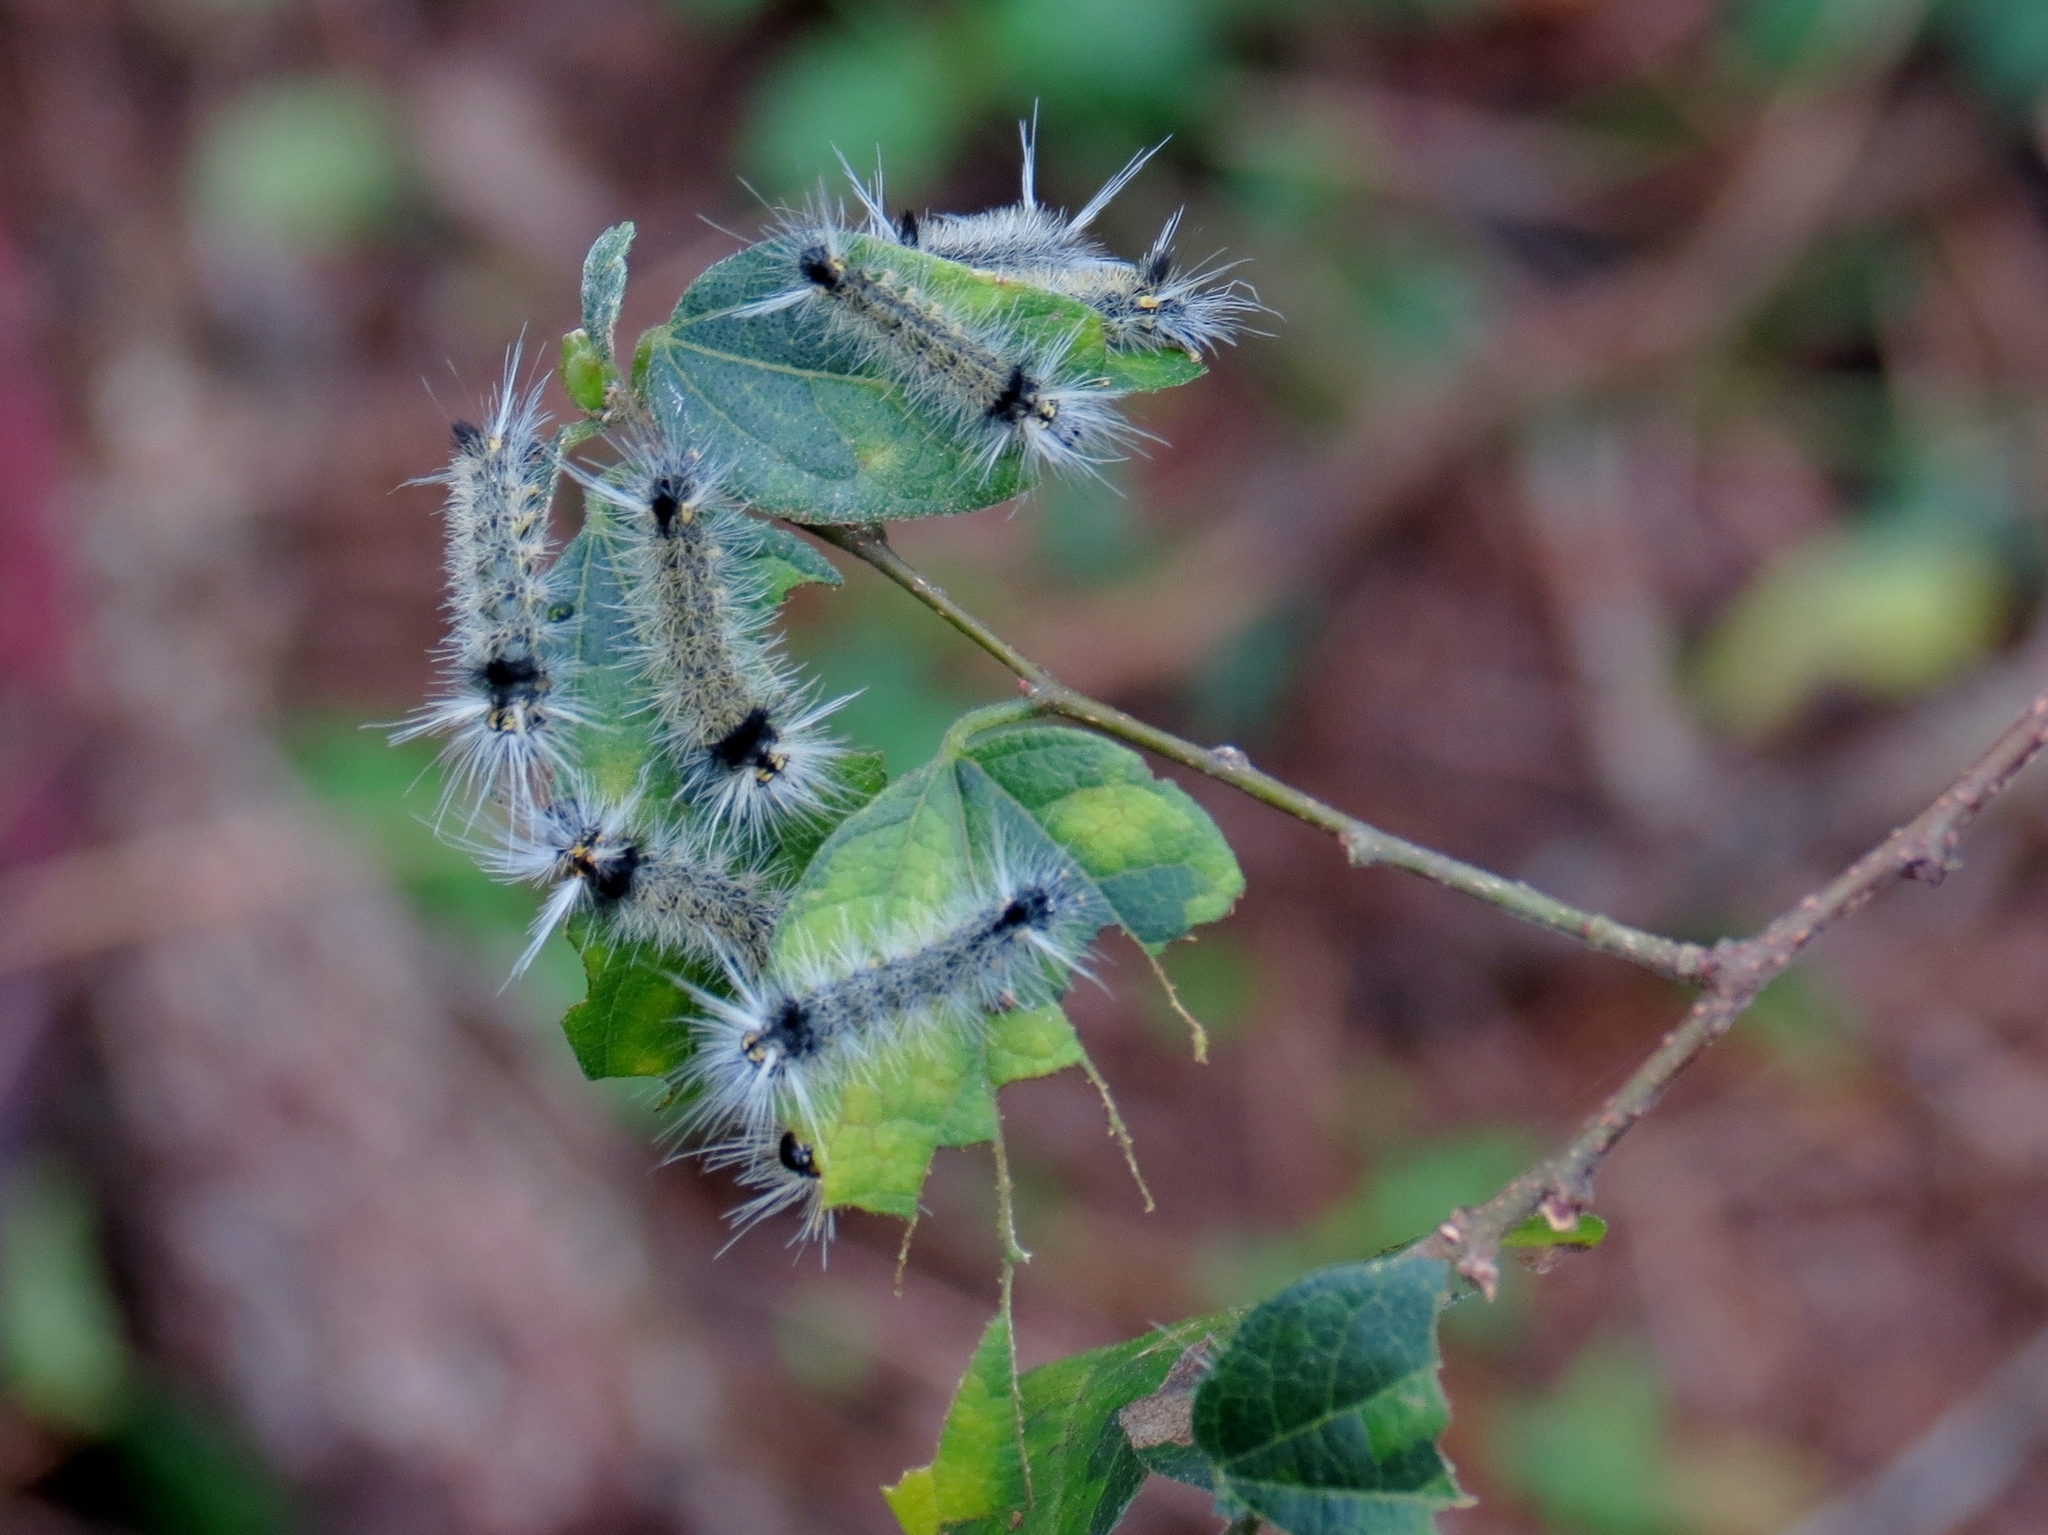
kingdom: Animalia
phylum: Arthropoda
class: Insecta
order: Lepidoptera
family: Erebidae
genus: Halysidota
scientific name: Halysidota schausi
